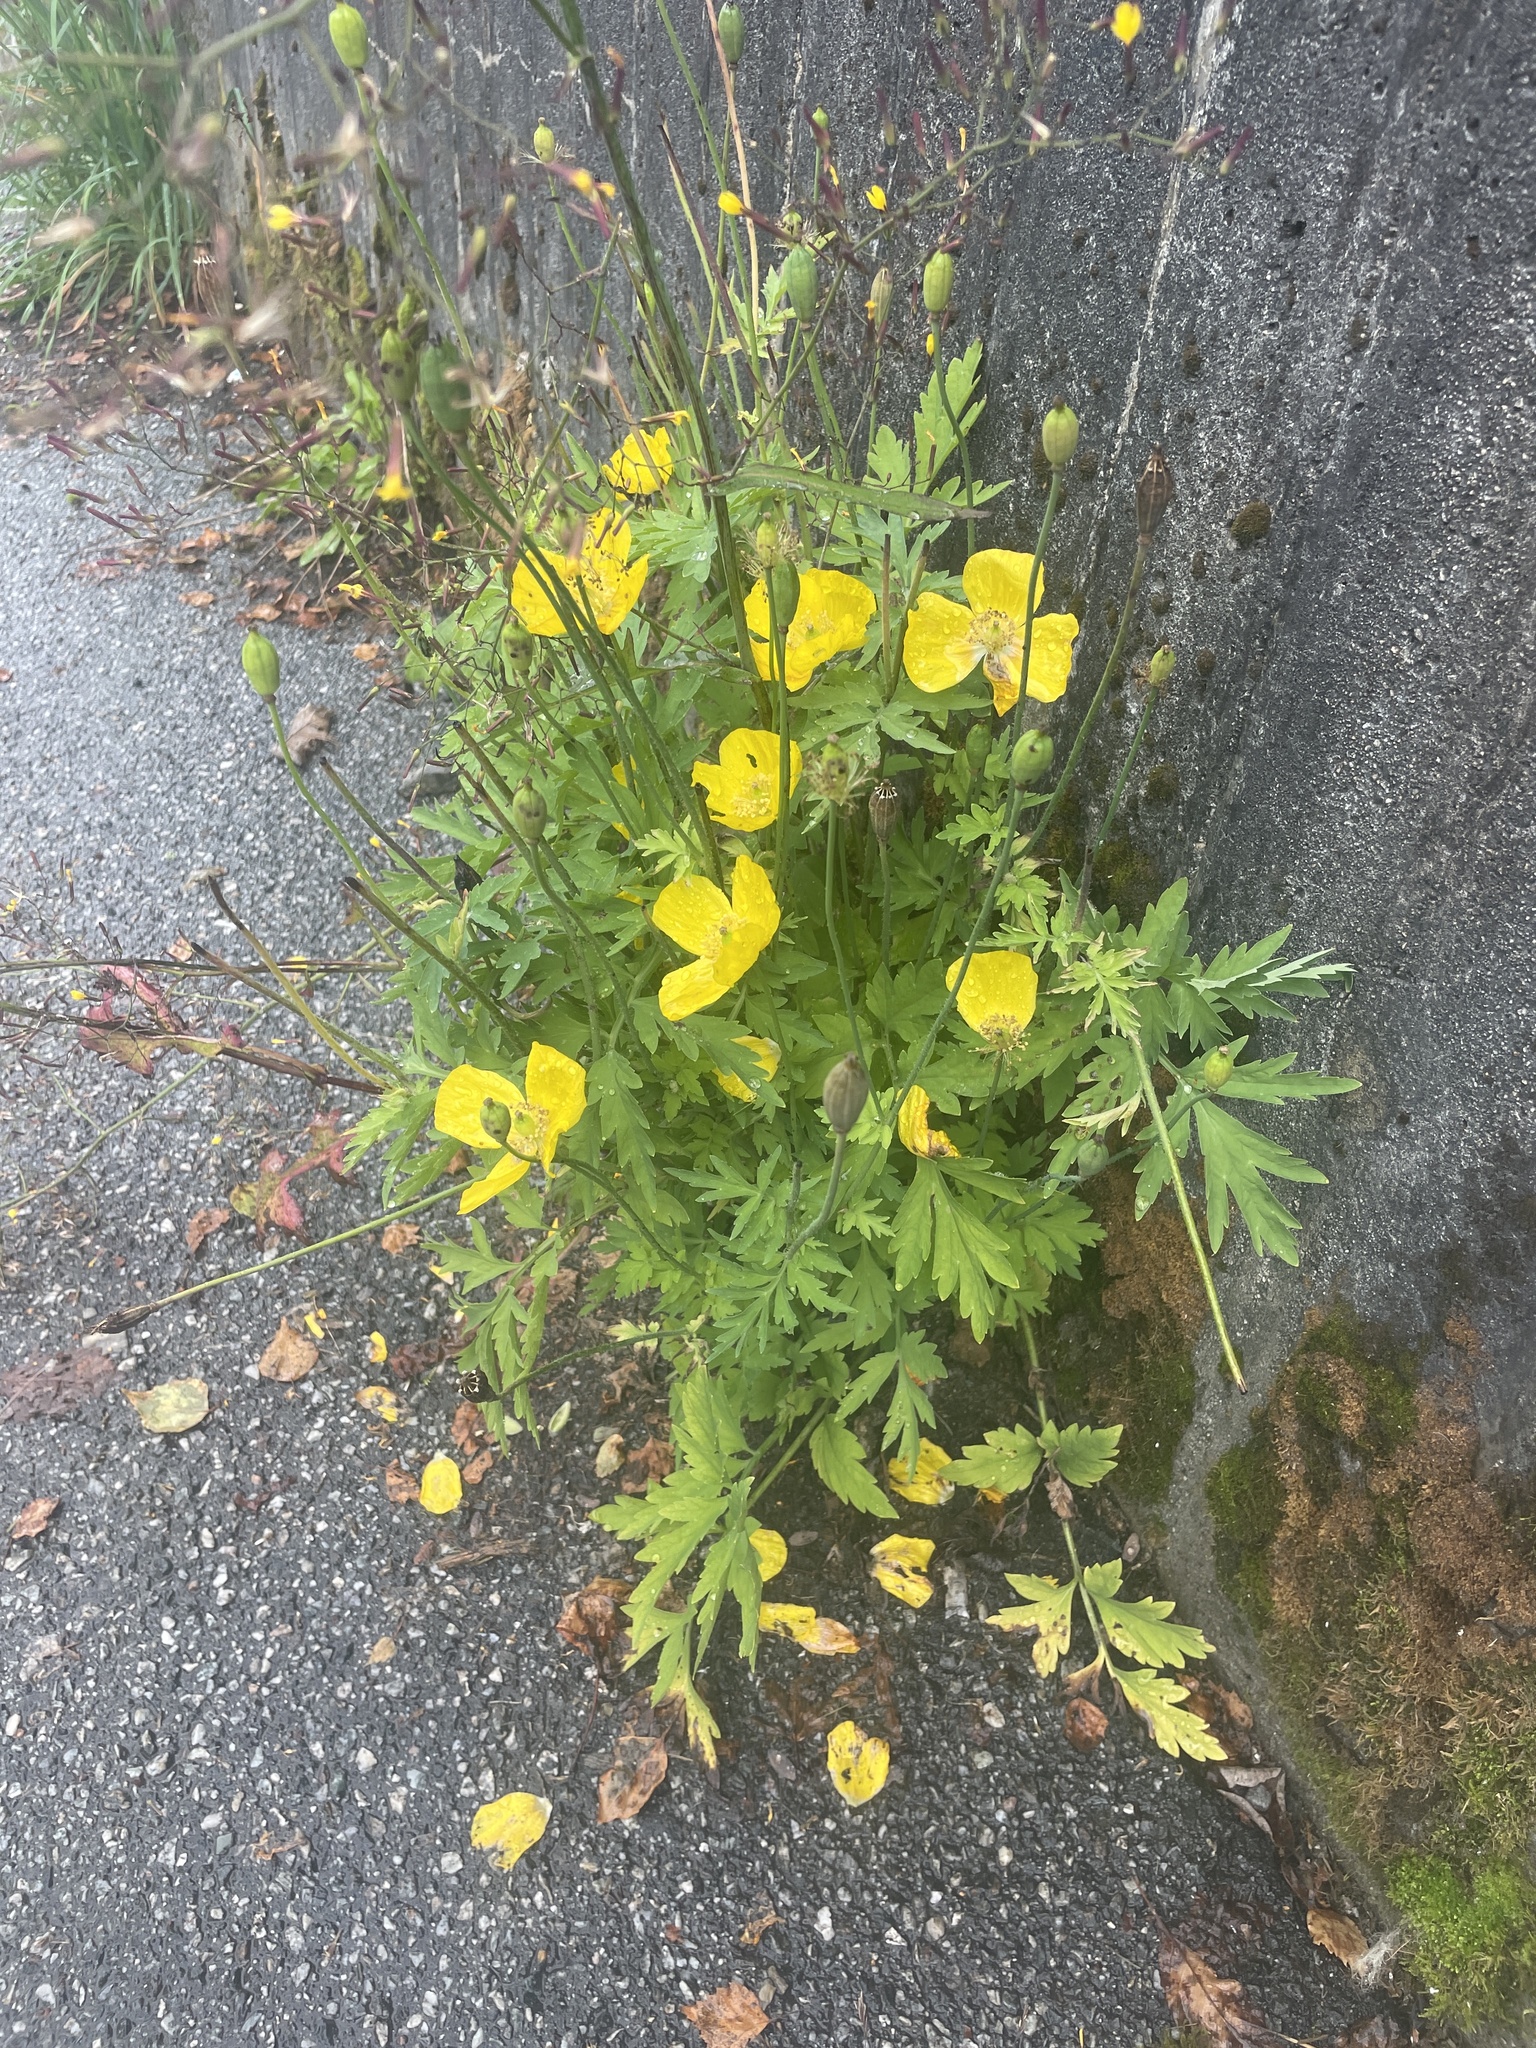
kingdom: Plantae
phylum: Tracheophyta
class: Magnoliopsida
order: Ranunculales
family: Papaveraceae
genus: Papaver
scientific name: Papaver cambricum
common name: Poppy
